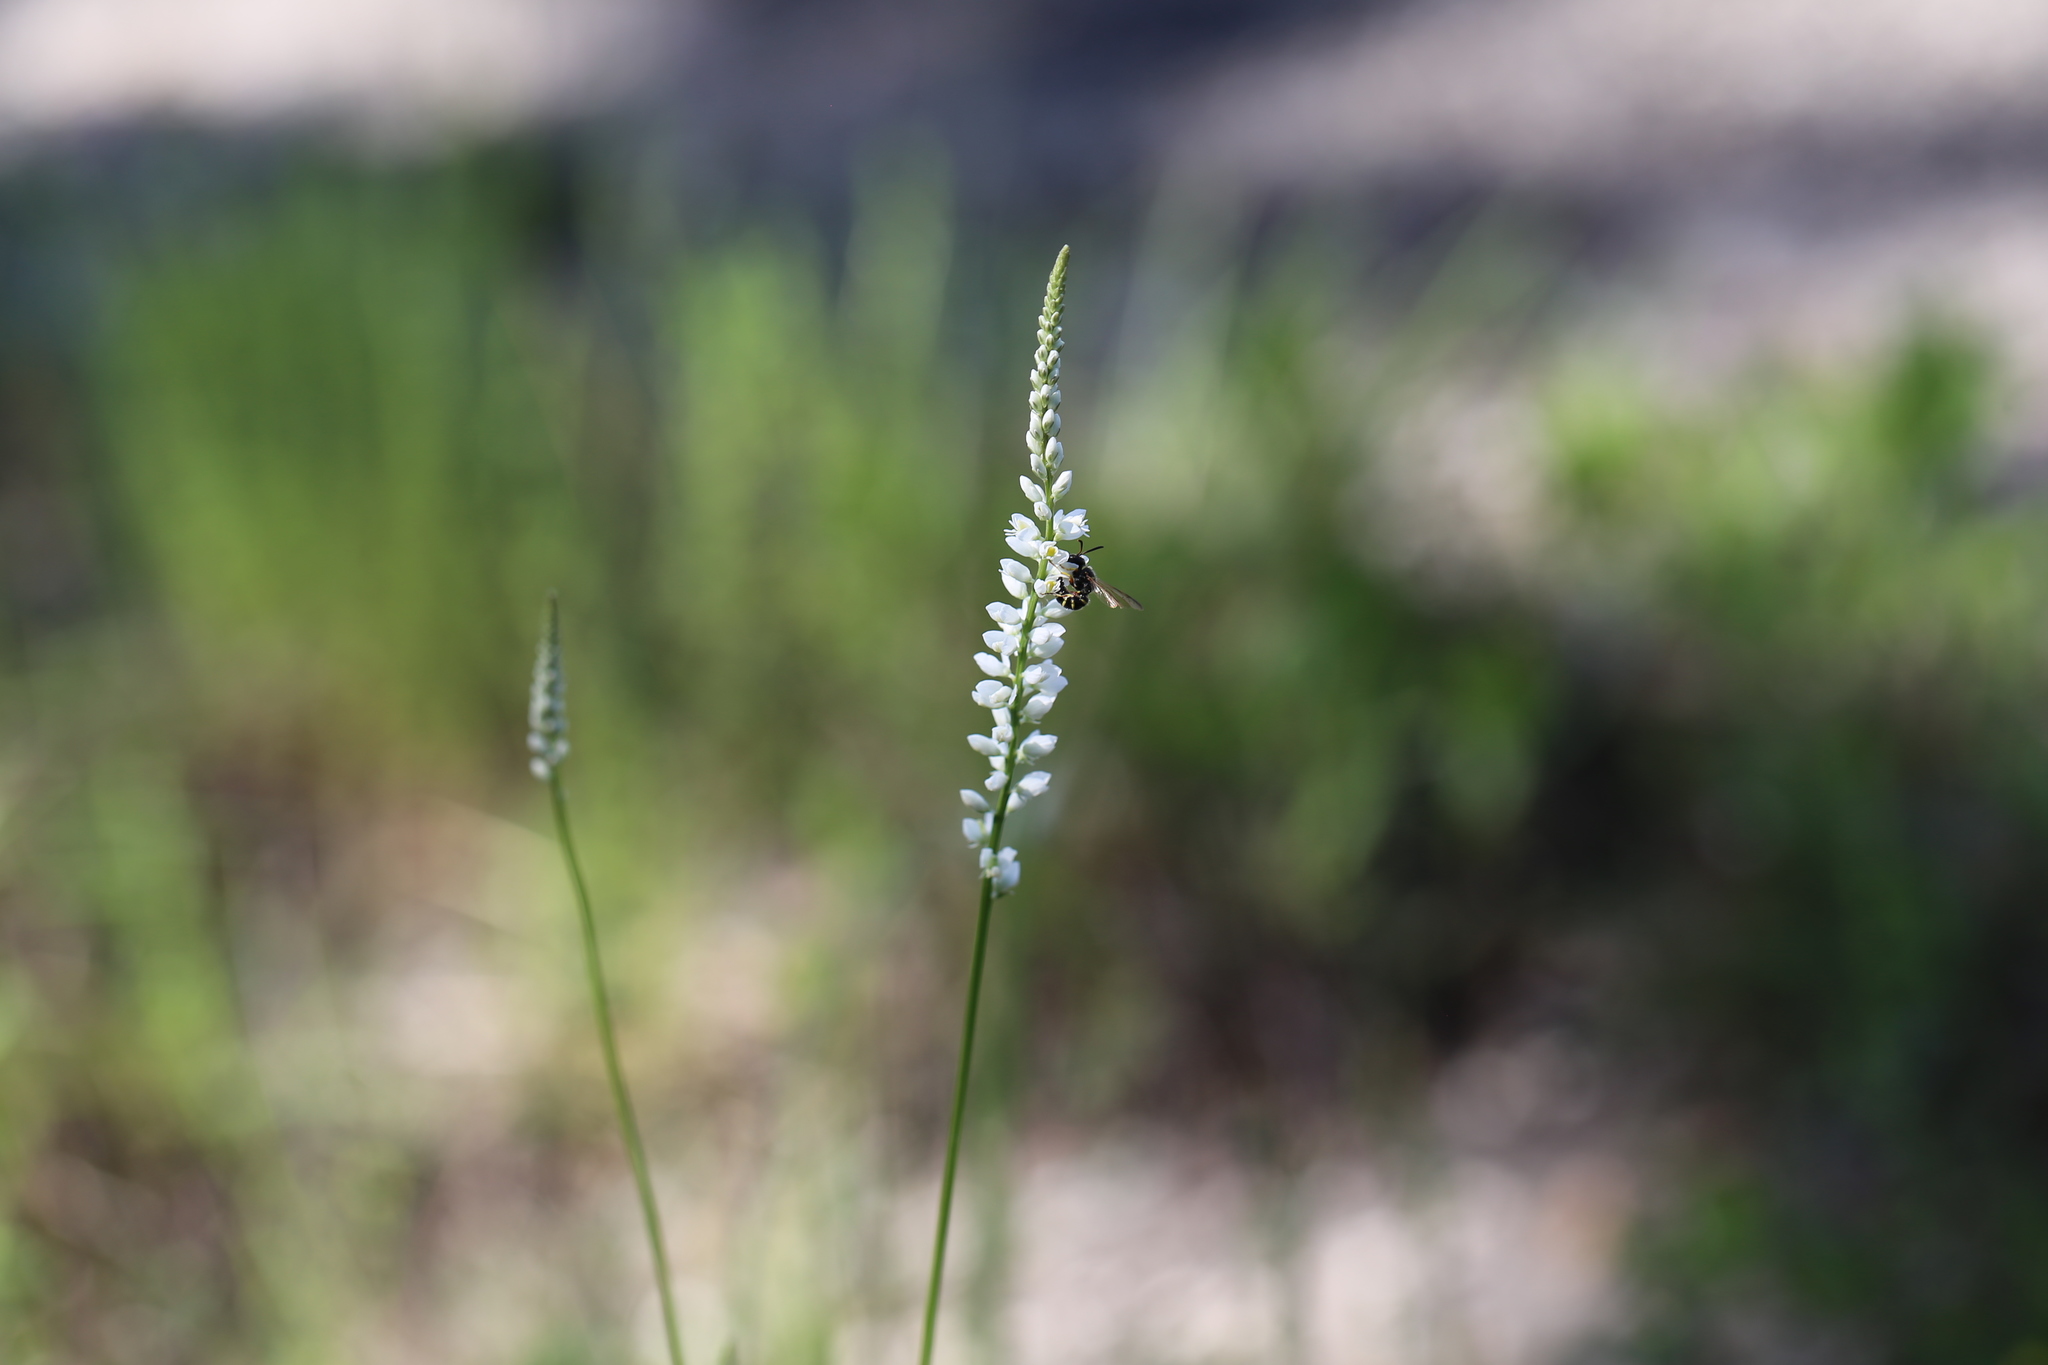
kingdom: Plantae
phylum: Tracheophyta
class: Magnoliopsida
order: Fabales
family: Polygalaceae
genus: Polygala
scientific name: Polygala alba
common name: White milkwort
